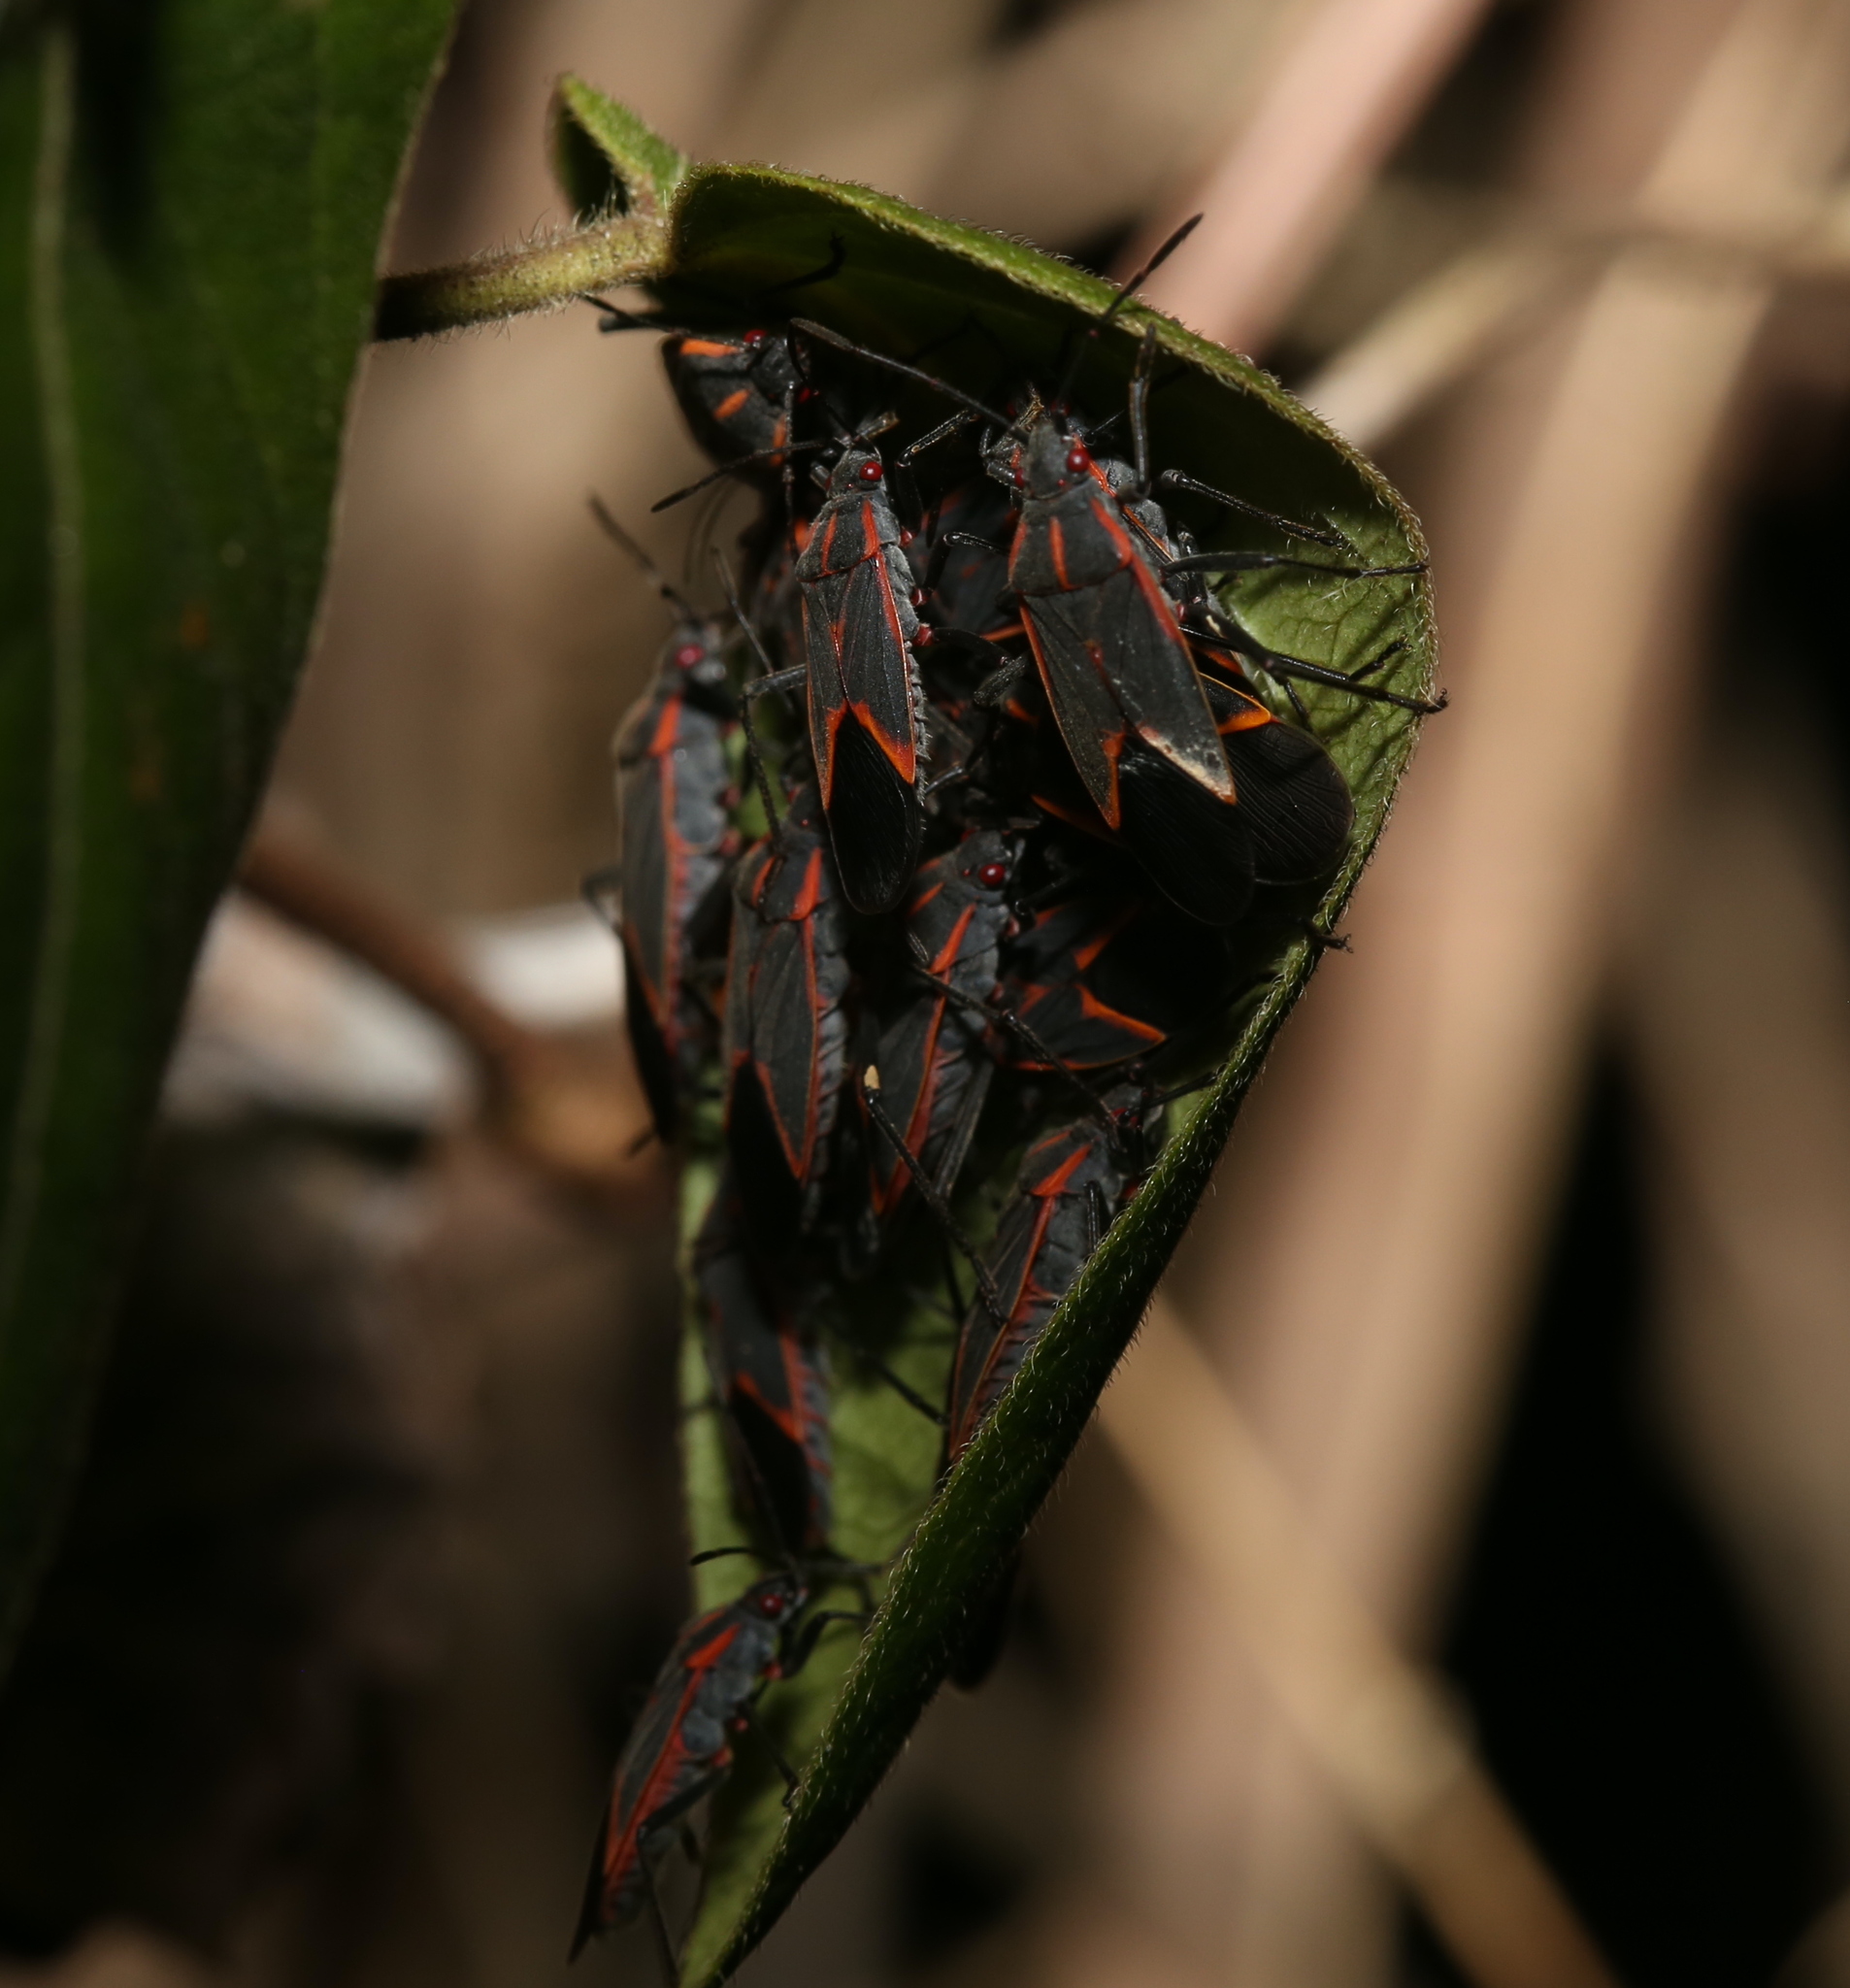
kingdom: Animalia
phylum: Arthropoda
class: Insecta
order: Hemiptera
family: Rhopalidae
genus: Boisea
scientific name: Boisea trivittata
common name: Boxelder bug
